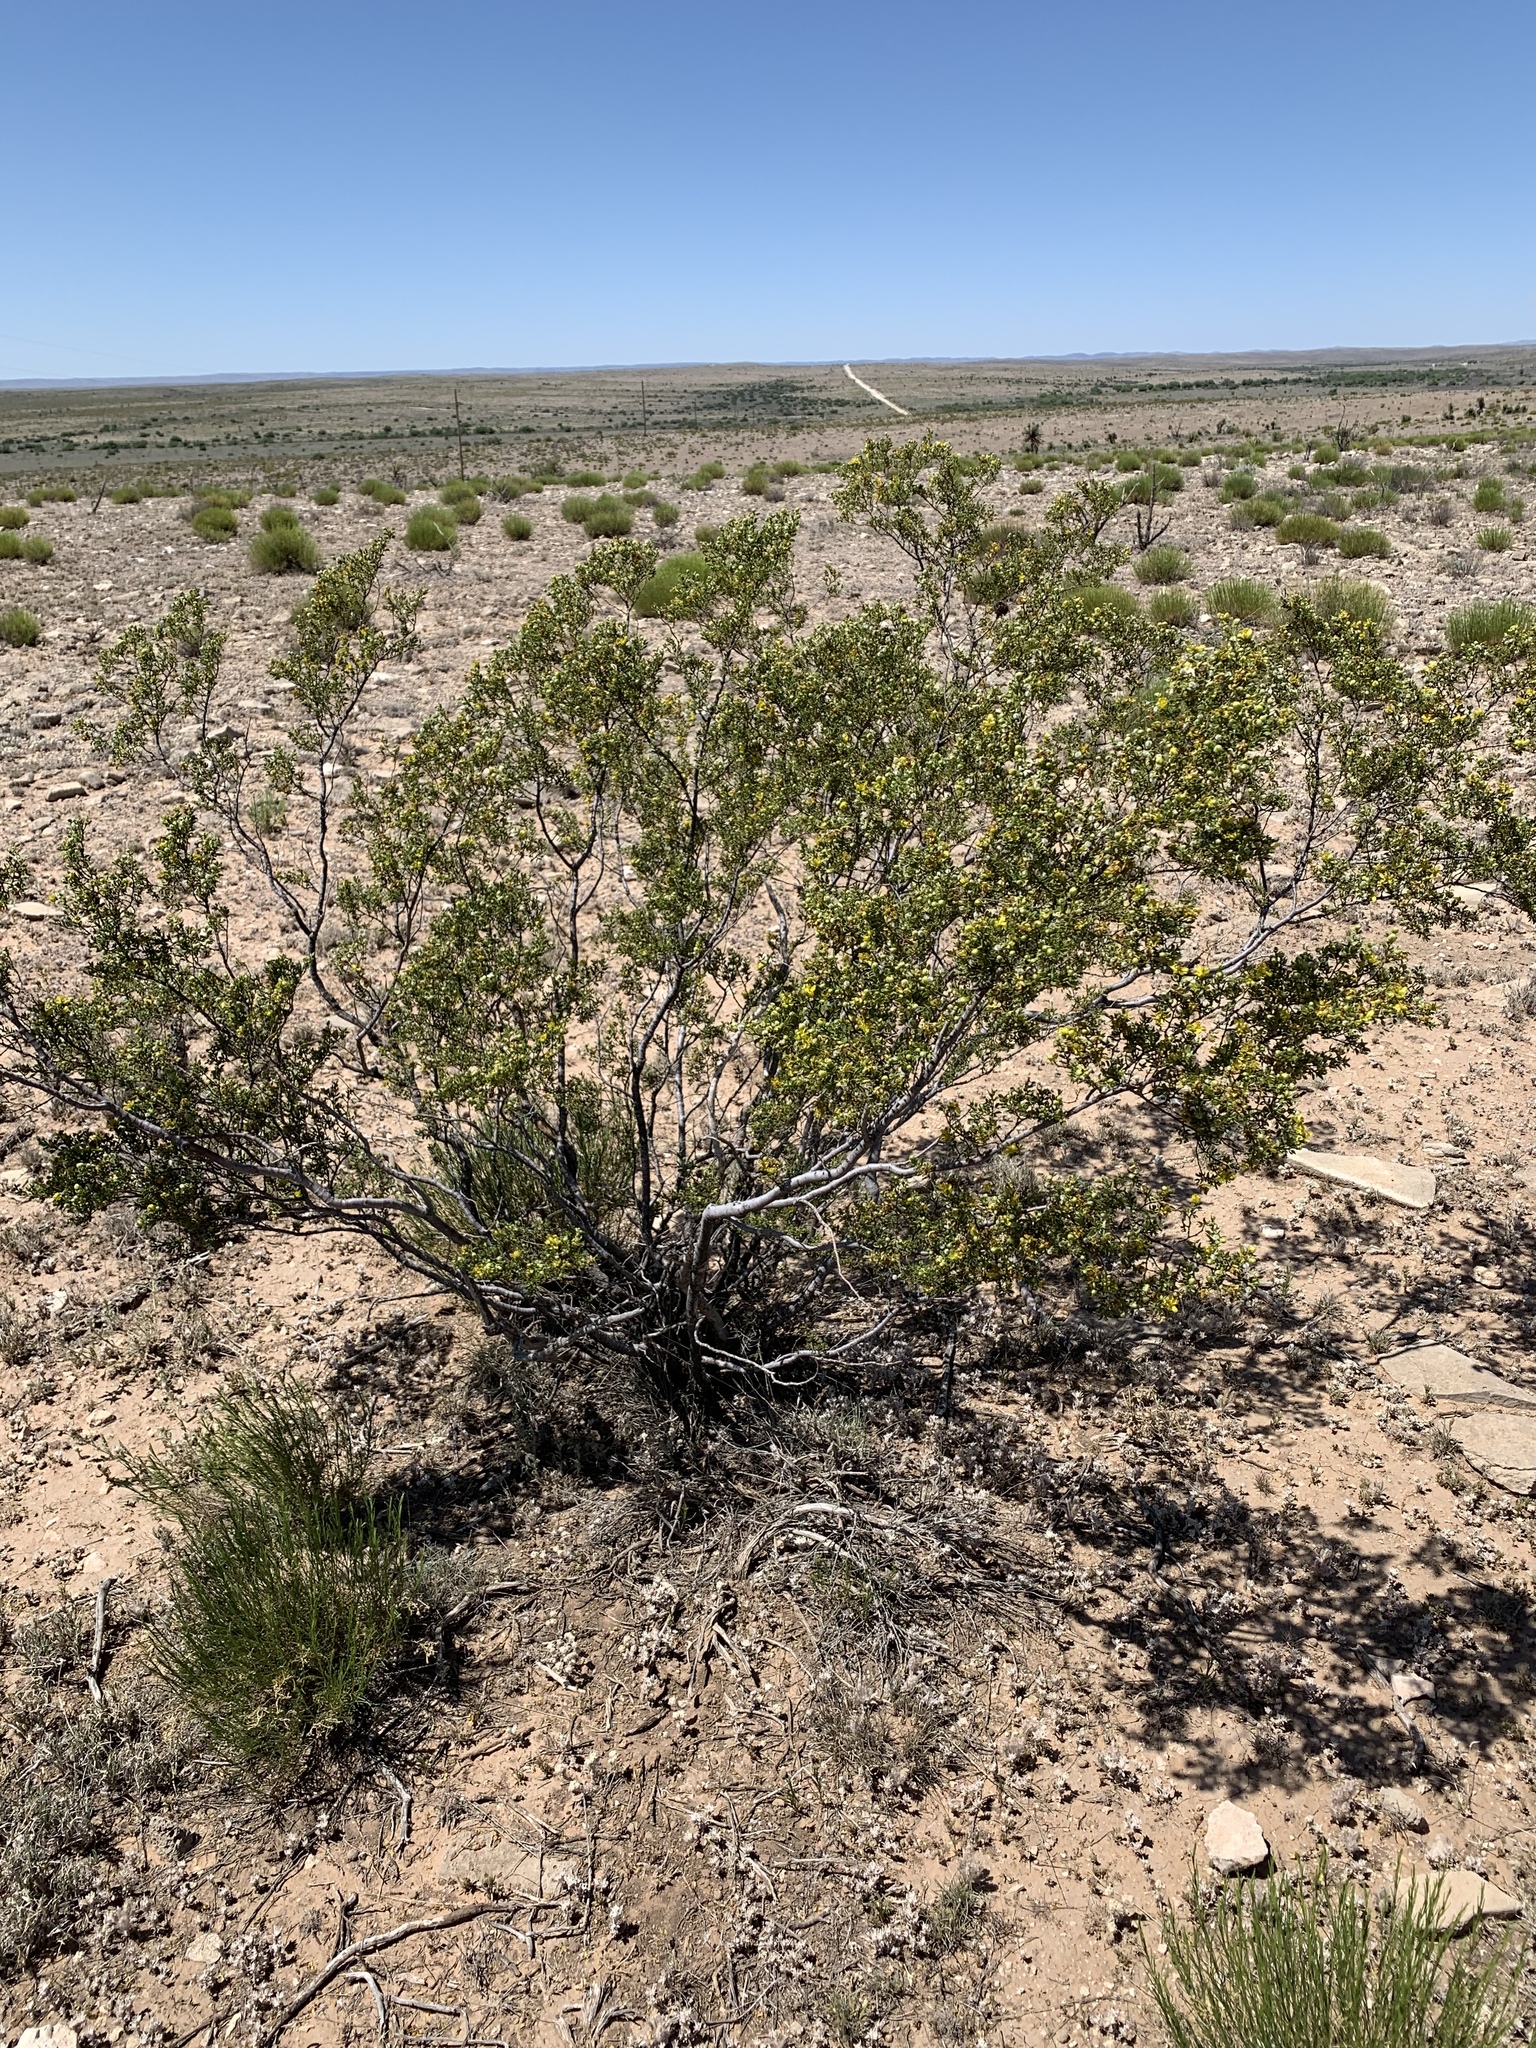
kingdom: Plantae
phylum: Tracheophyta
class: Magnoliopsida
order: Zygophyllales
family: Zygophyllaceae
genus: Larrea
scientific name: Larrea tridentata
